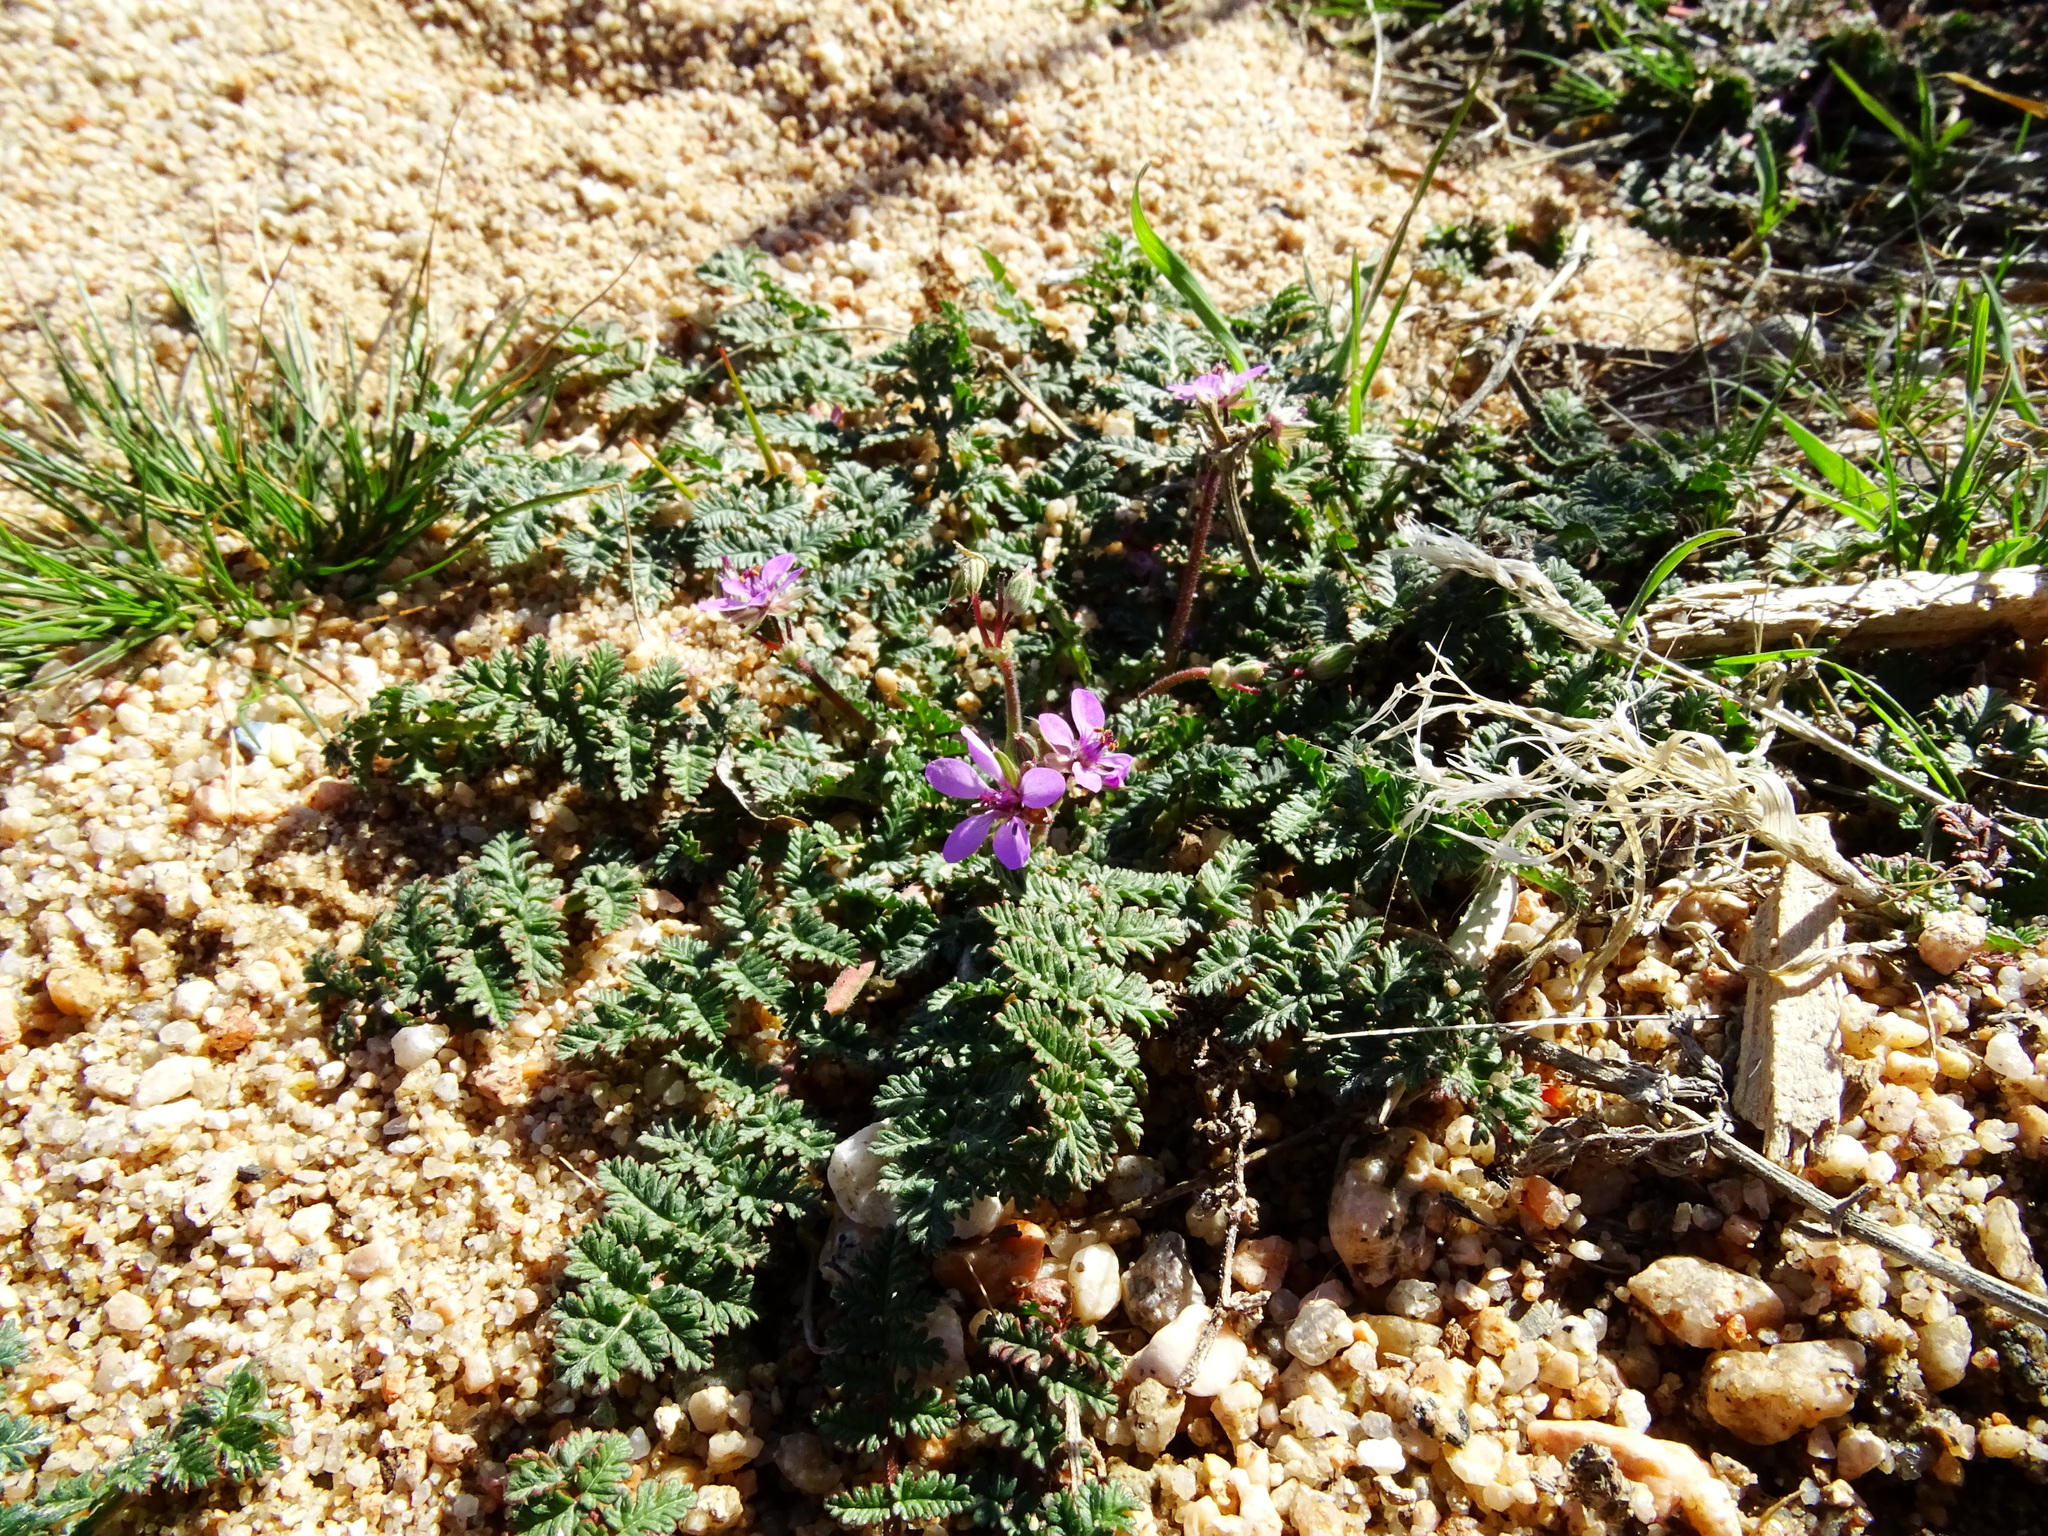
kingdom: Plantae
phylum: Tracheophyta
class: Magnoliopsida
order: Geraniales
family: Geraniaceae
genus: Erodium
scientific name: Erodium cicutarium
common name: Common stork's-bill
